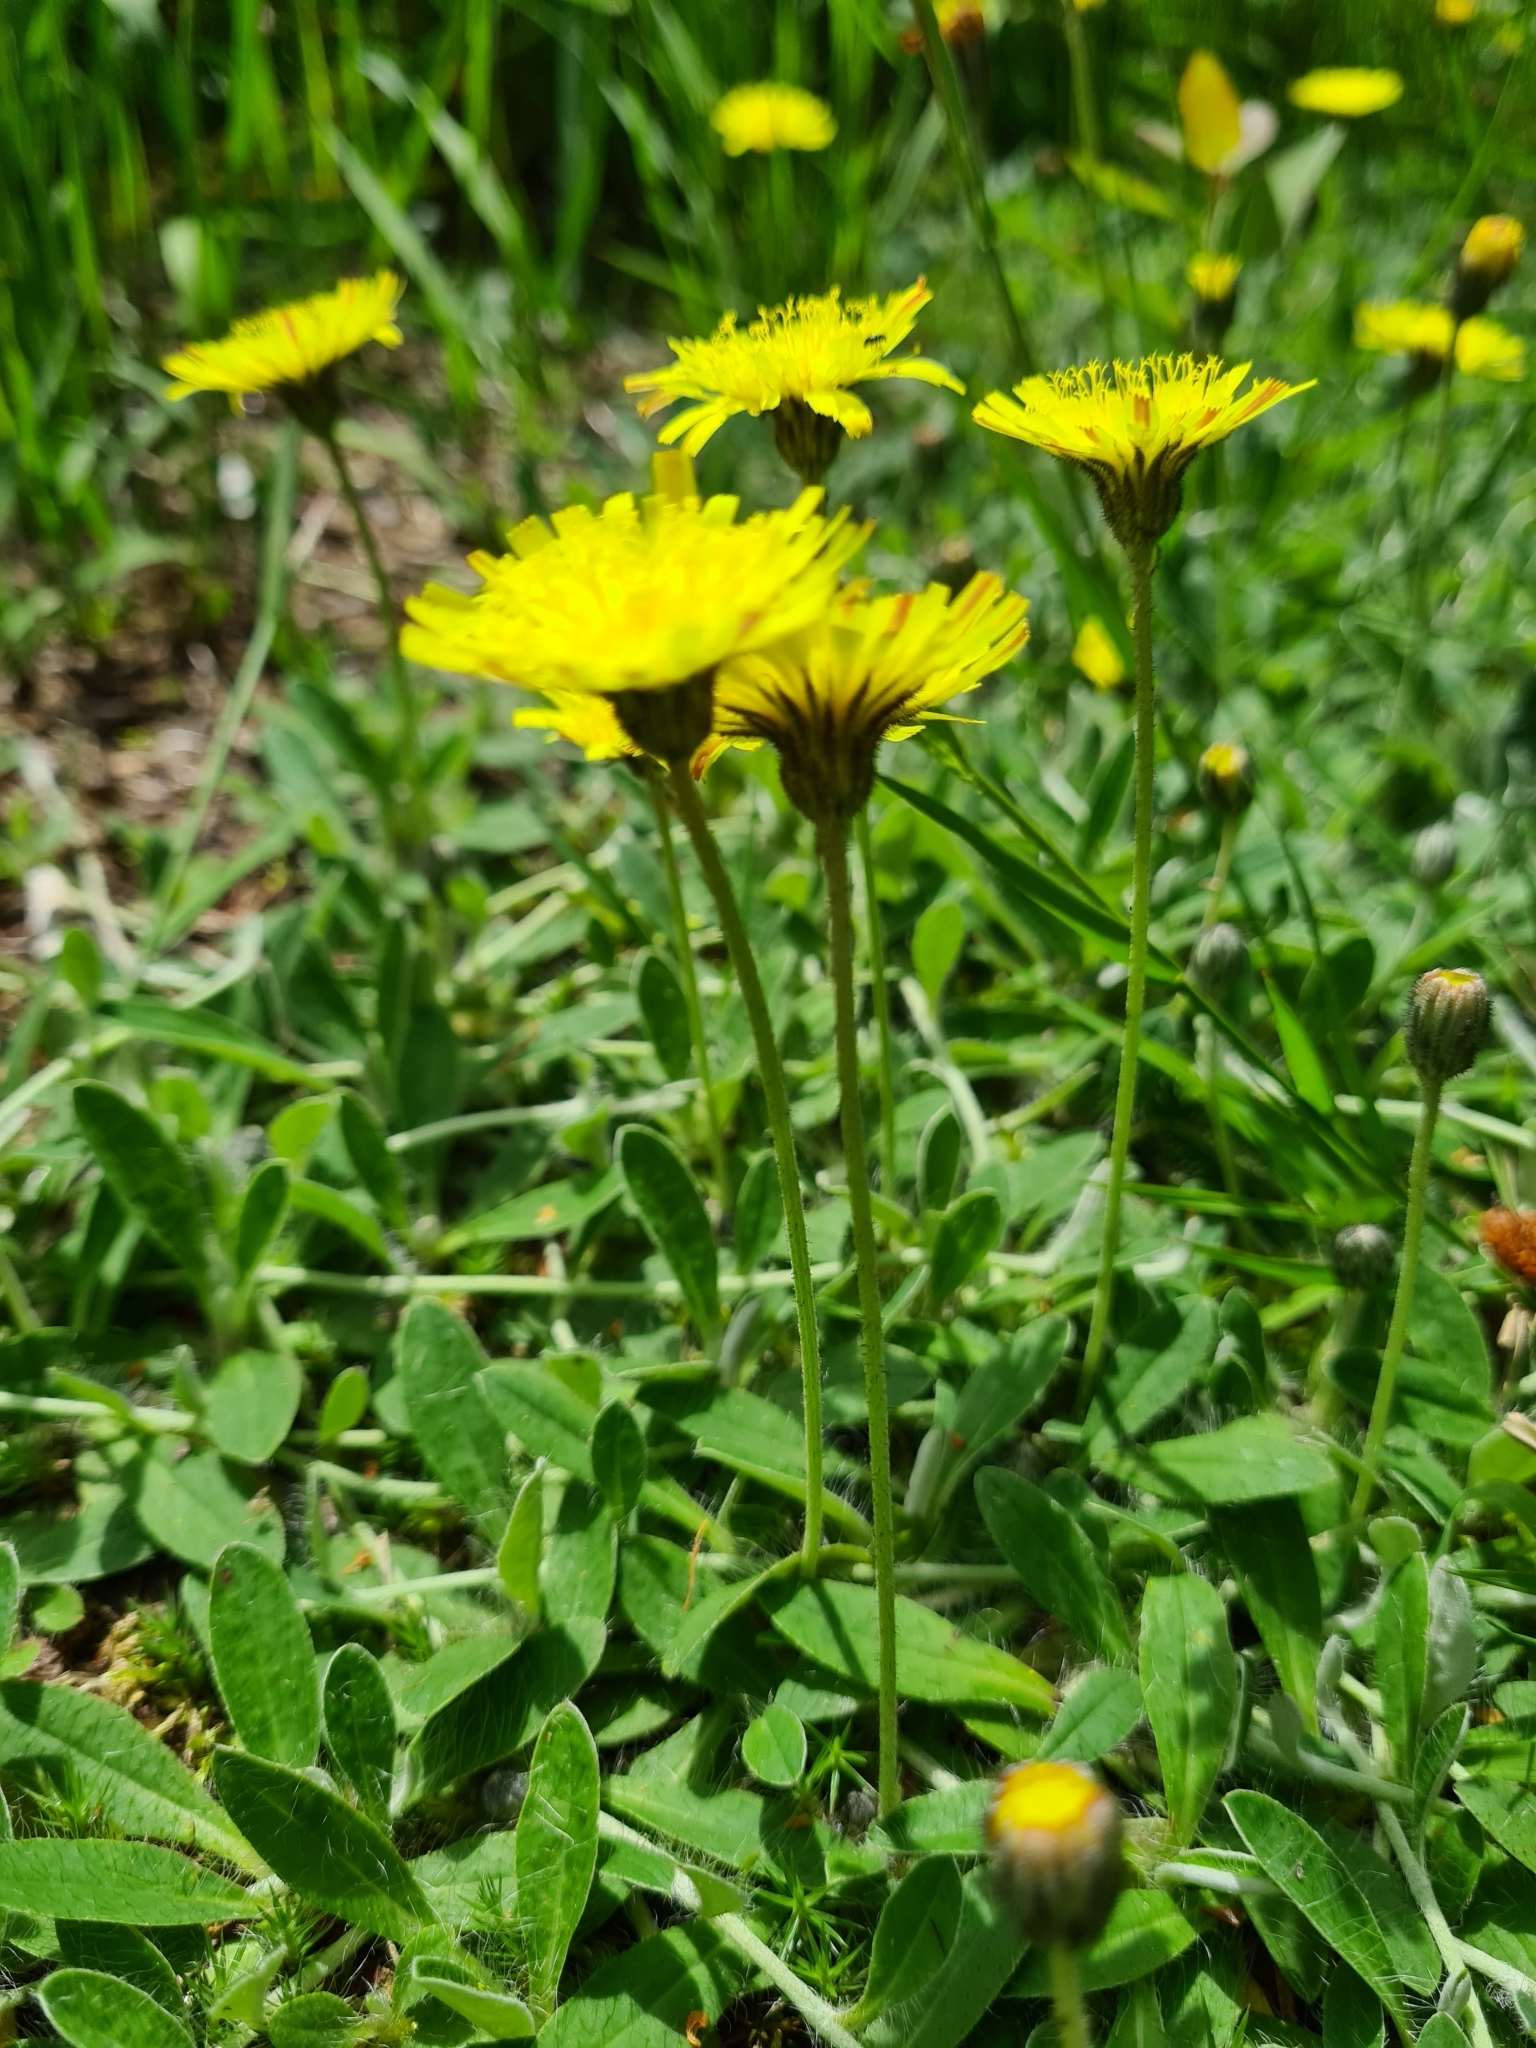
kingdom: Plantae
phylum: Tracheophyta
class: Magnoliopsida
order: Asterales
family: Asteraceae
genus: Pilosella
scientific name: Pilosella officinarum
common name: Mouse-ear hawkweed
